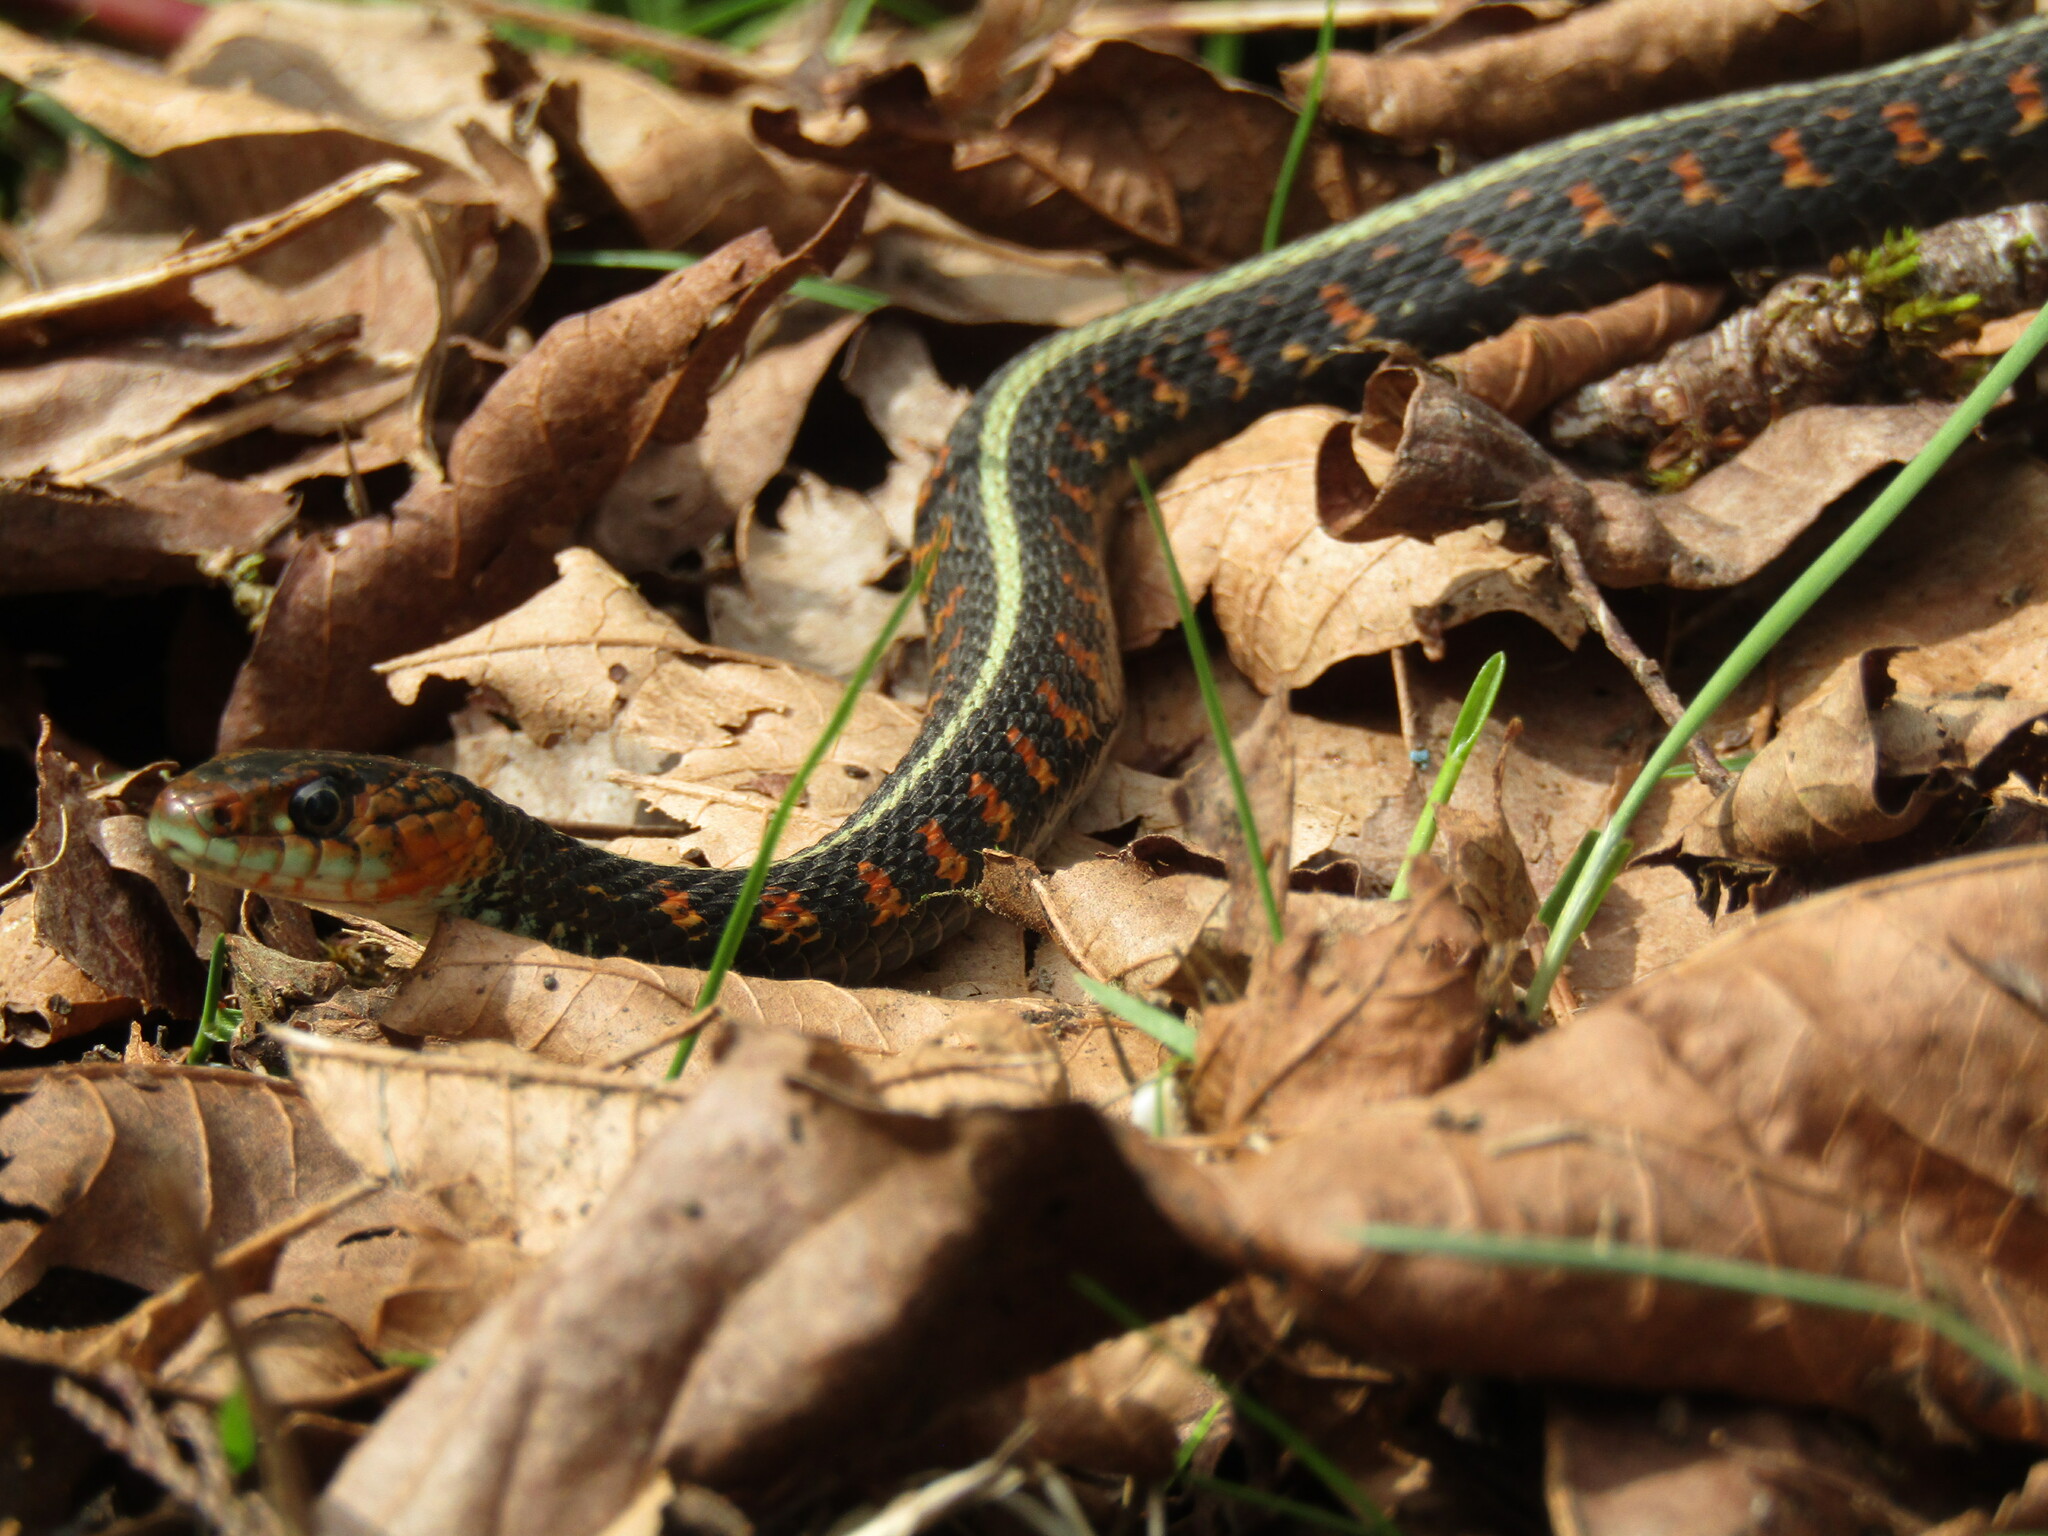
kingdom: Animalia
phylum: Chordata
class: Squamata
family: Colubridae
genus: Thamnophis
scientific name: Thamnophis sirtalis
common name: Common garter snake
